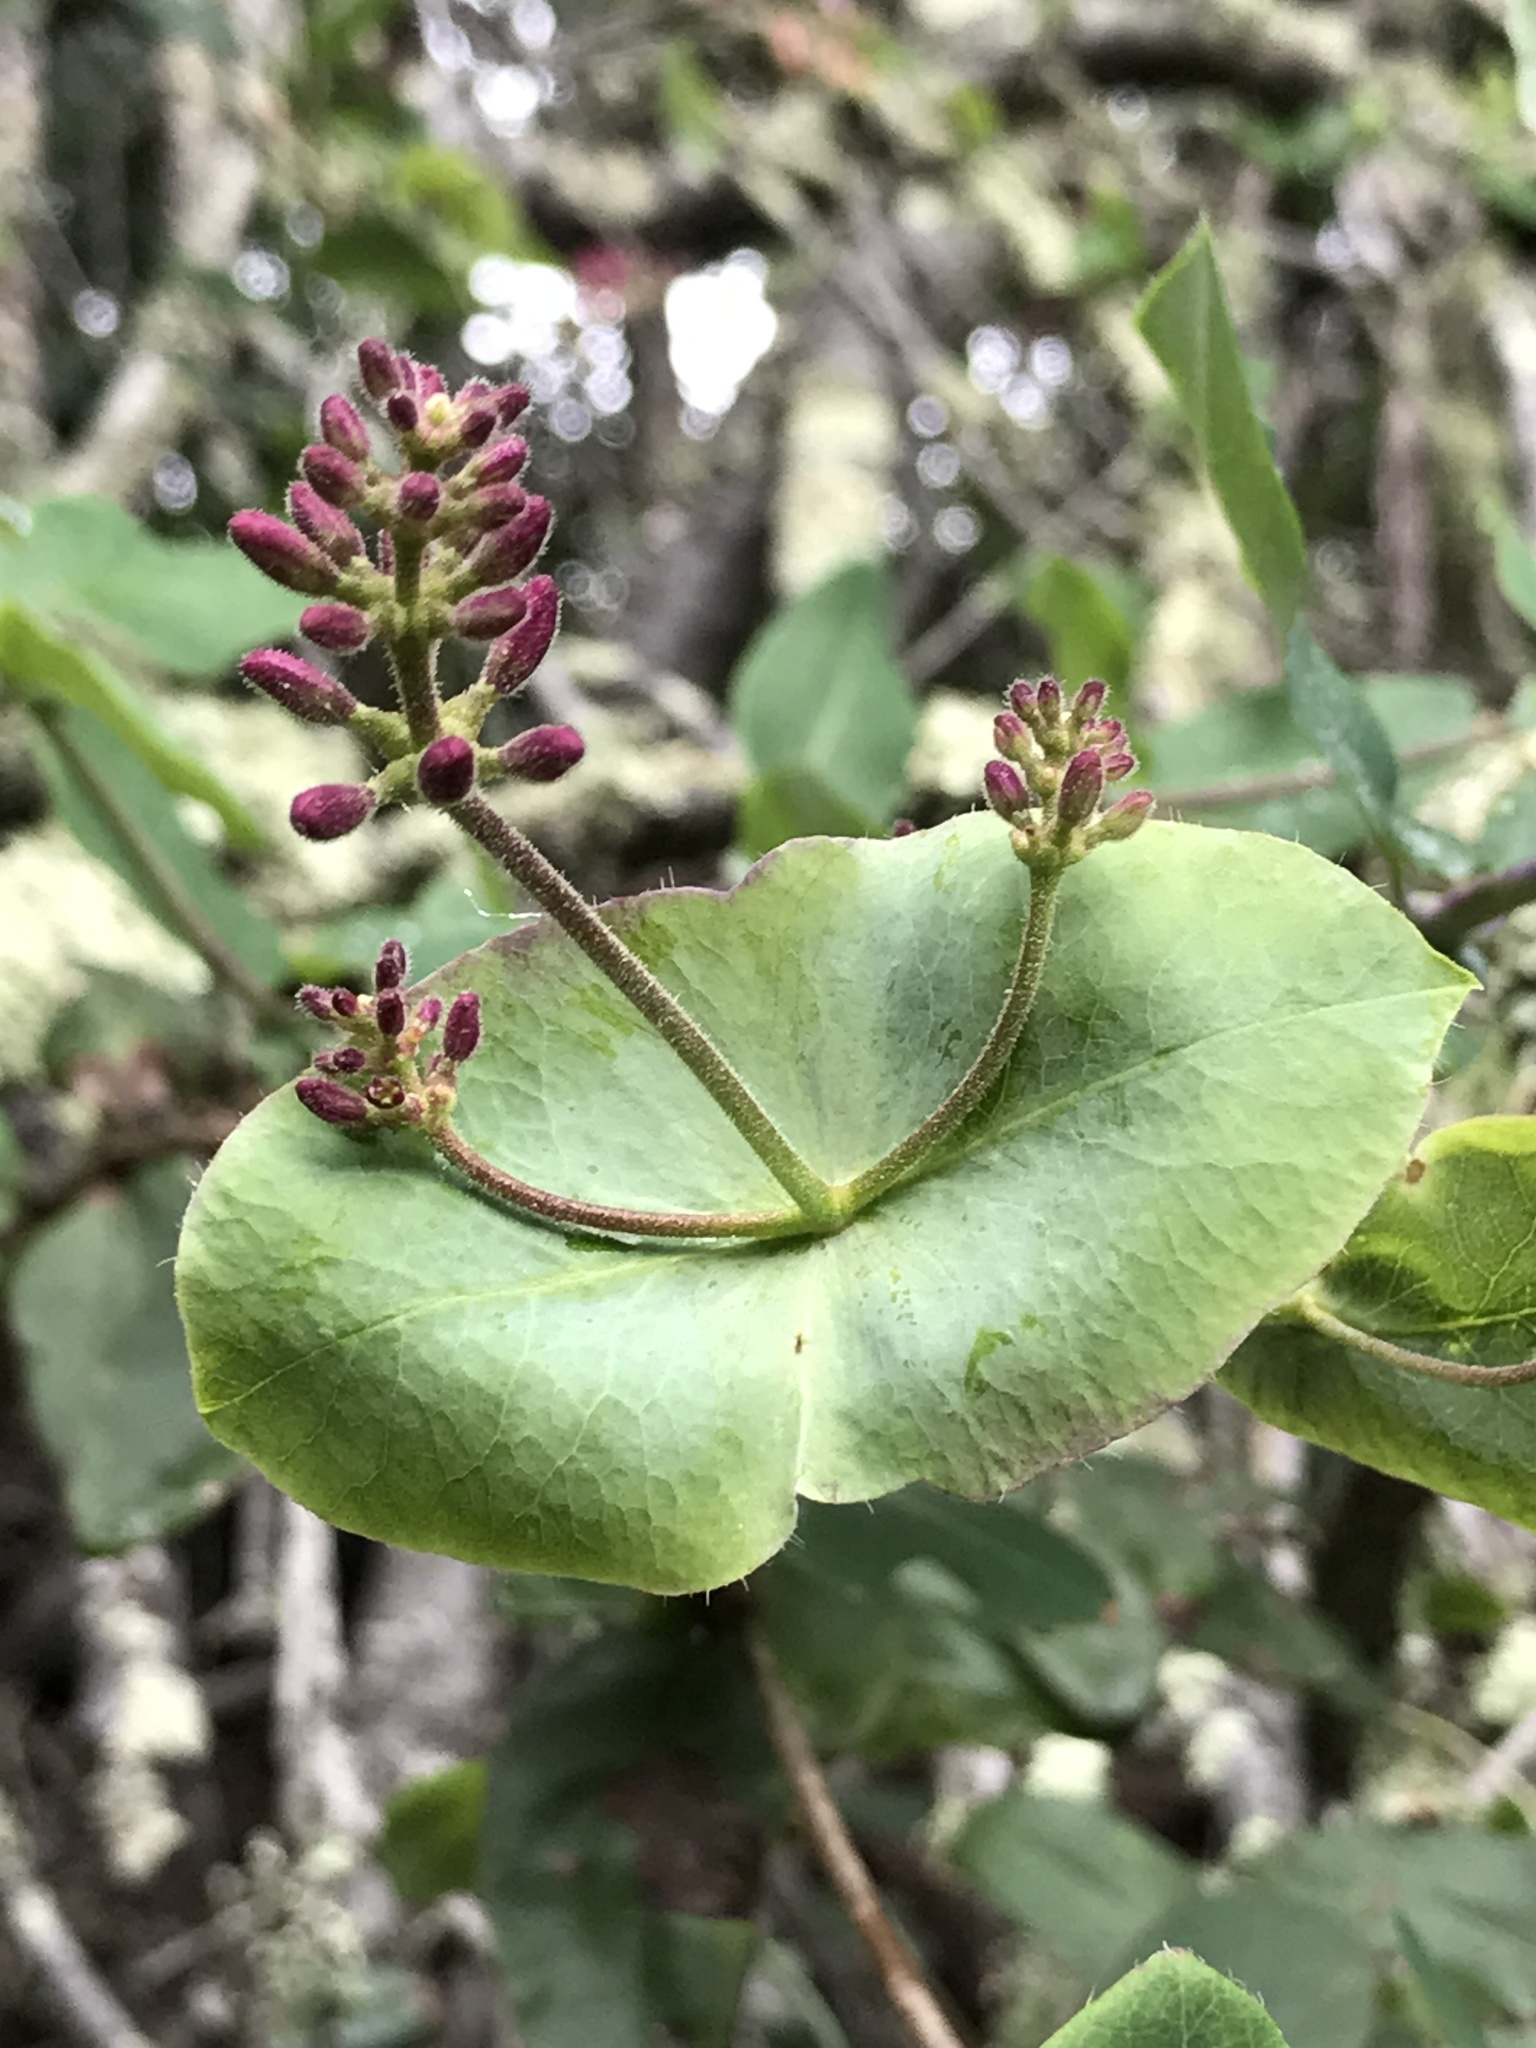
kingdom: Plantae
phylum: Tracheophyta
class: Magnoliopsida
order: Dipsacales
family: Caprifoliaceae
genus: Lonicera
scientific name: Lonicera hispidula
